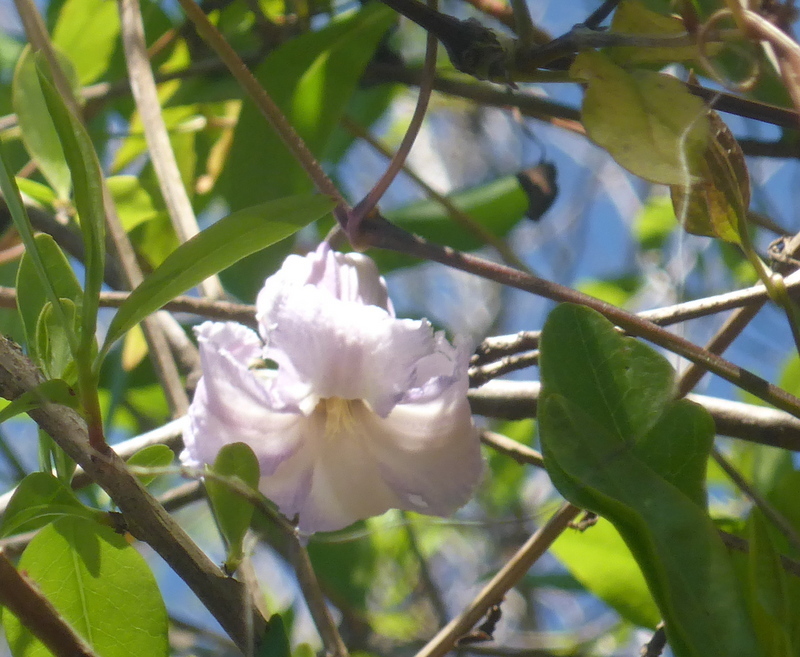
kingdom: Plantae
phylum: Tracheophyta
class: Magnoliopsida
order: Ranunculales
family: Ranunculaceae
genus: Clematis
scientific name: Clematis crispa
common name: Curly clematis
